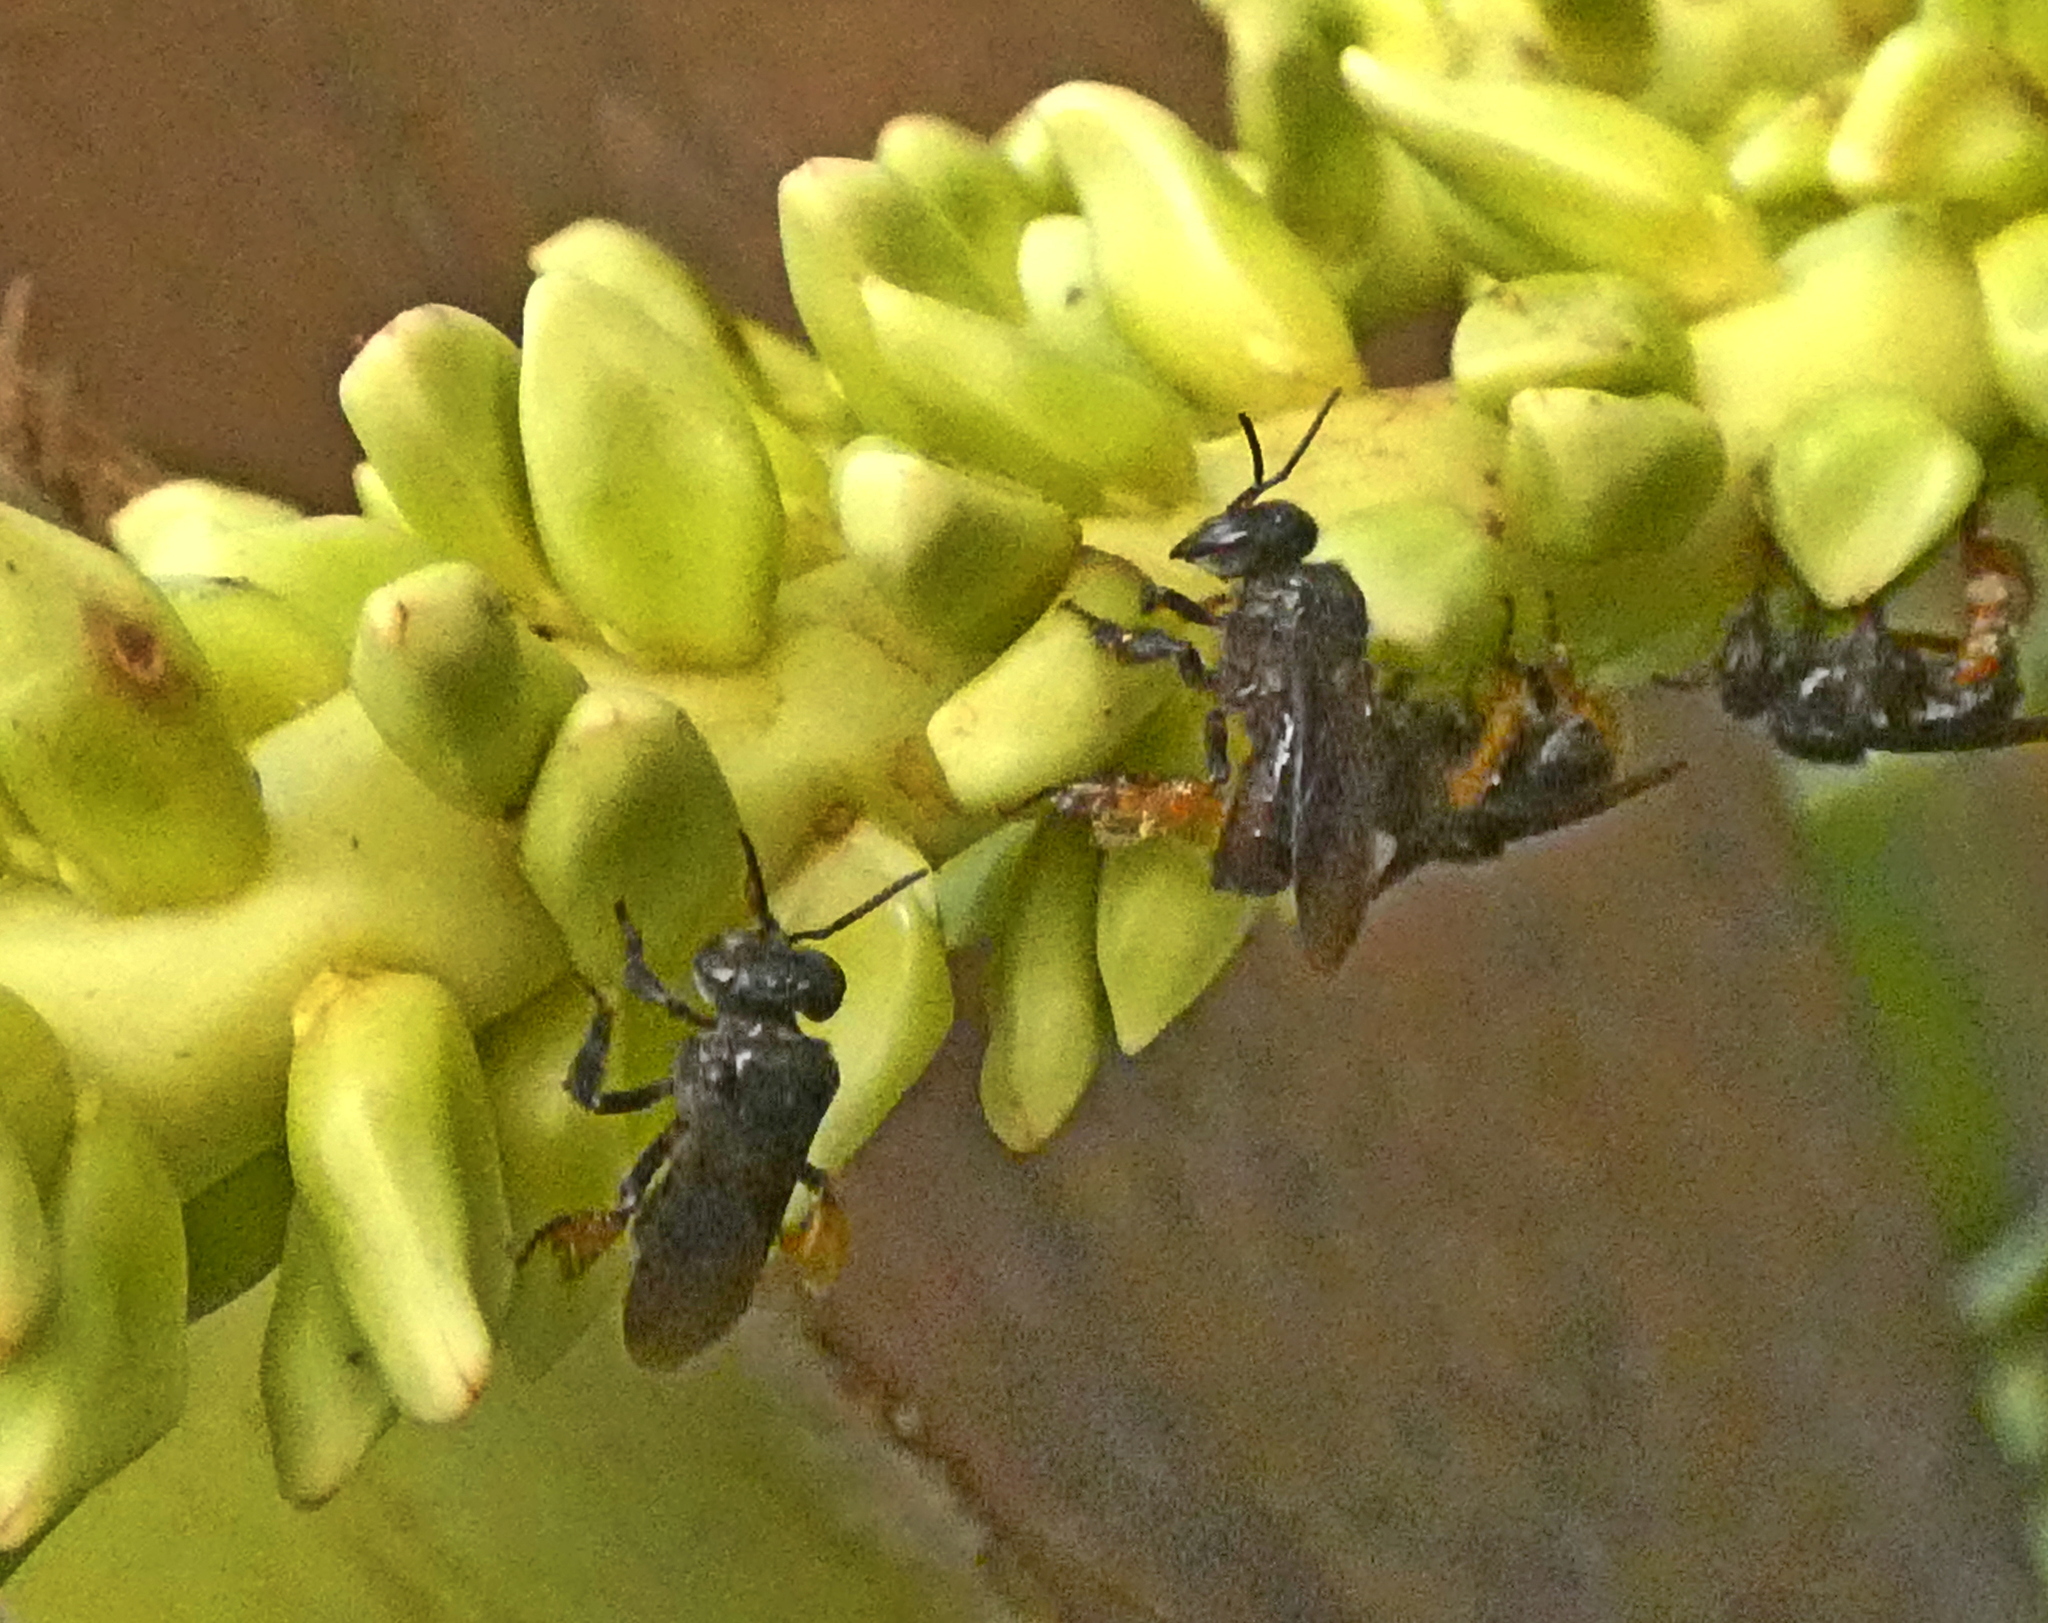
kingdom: Animalia
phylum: Arthropoda
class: Insecta
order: Hymenoptera
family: Apidae
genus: Trigona
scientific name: Trigona spinipes
